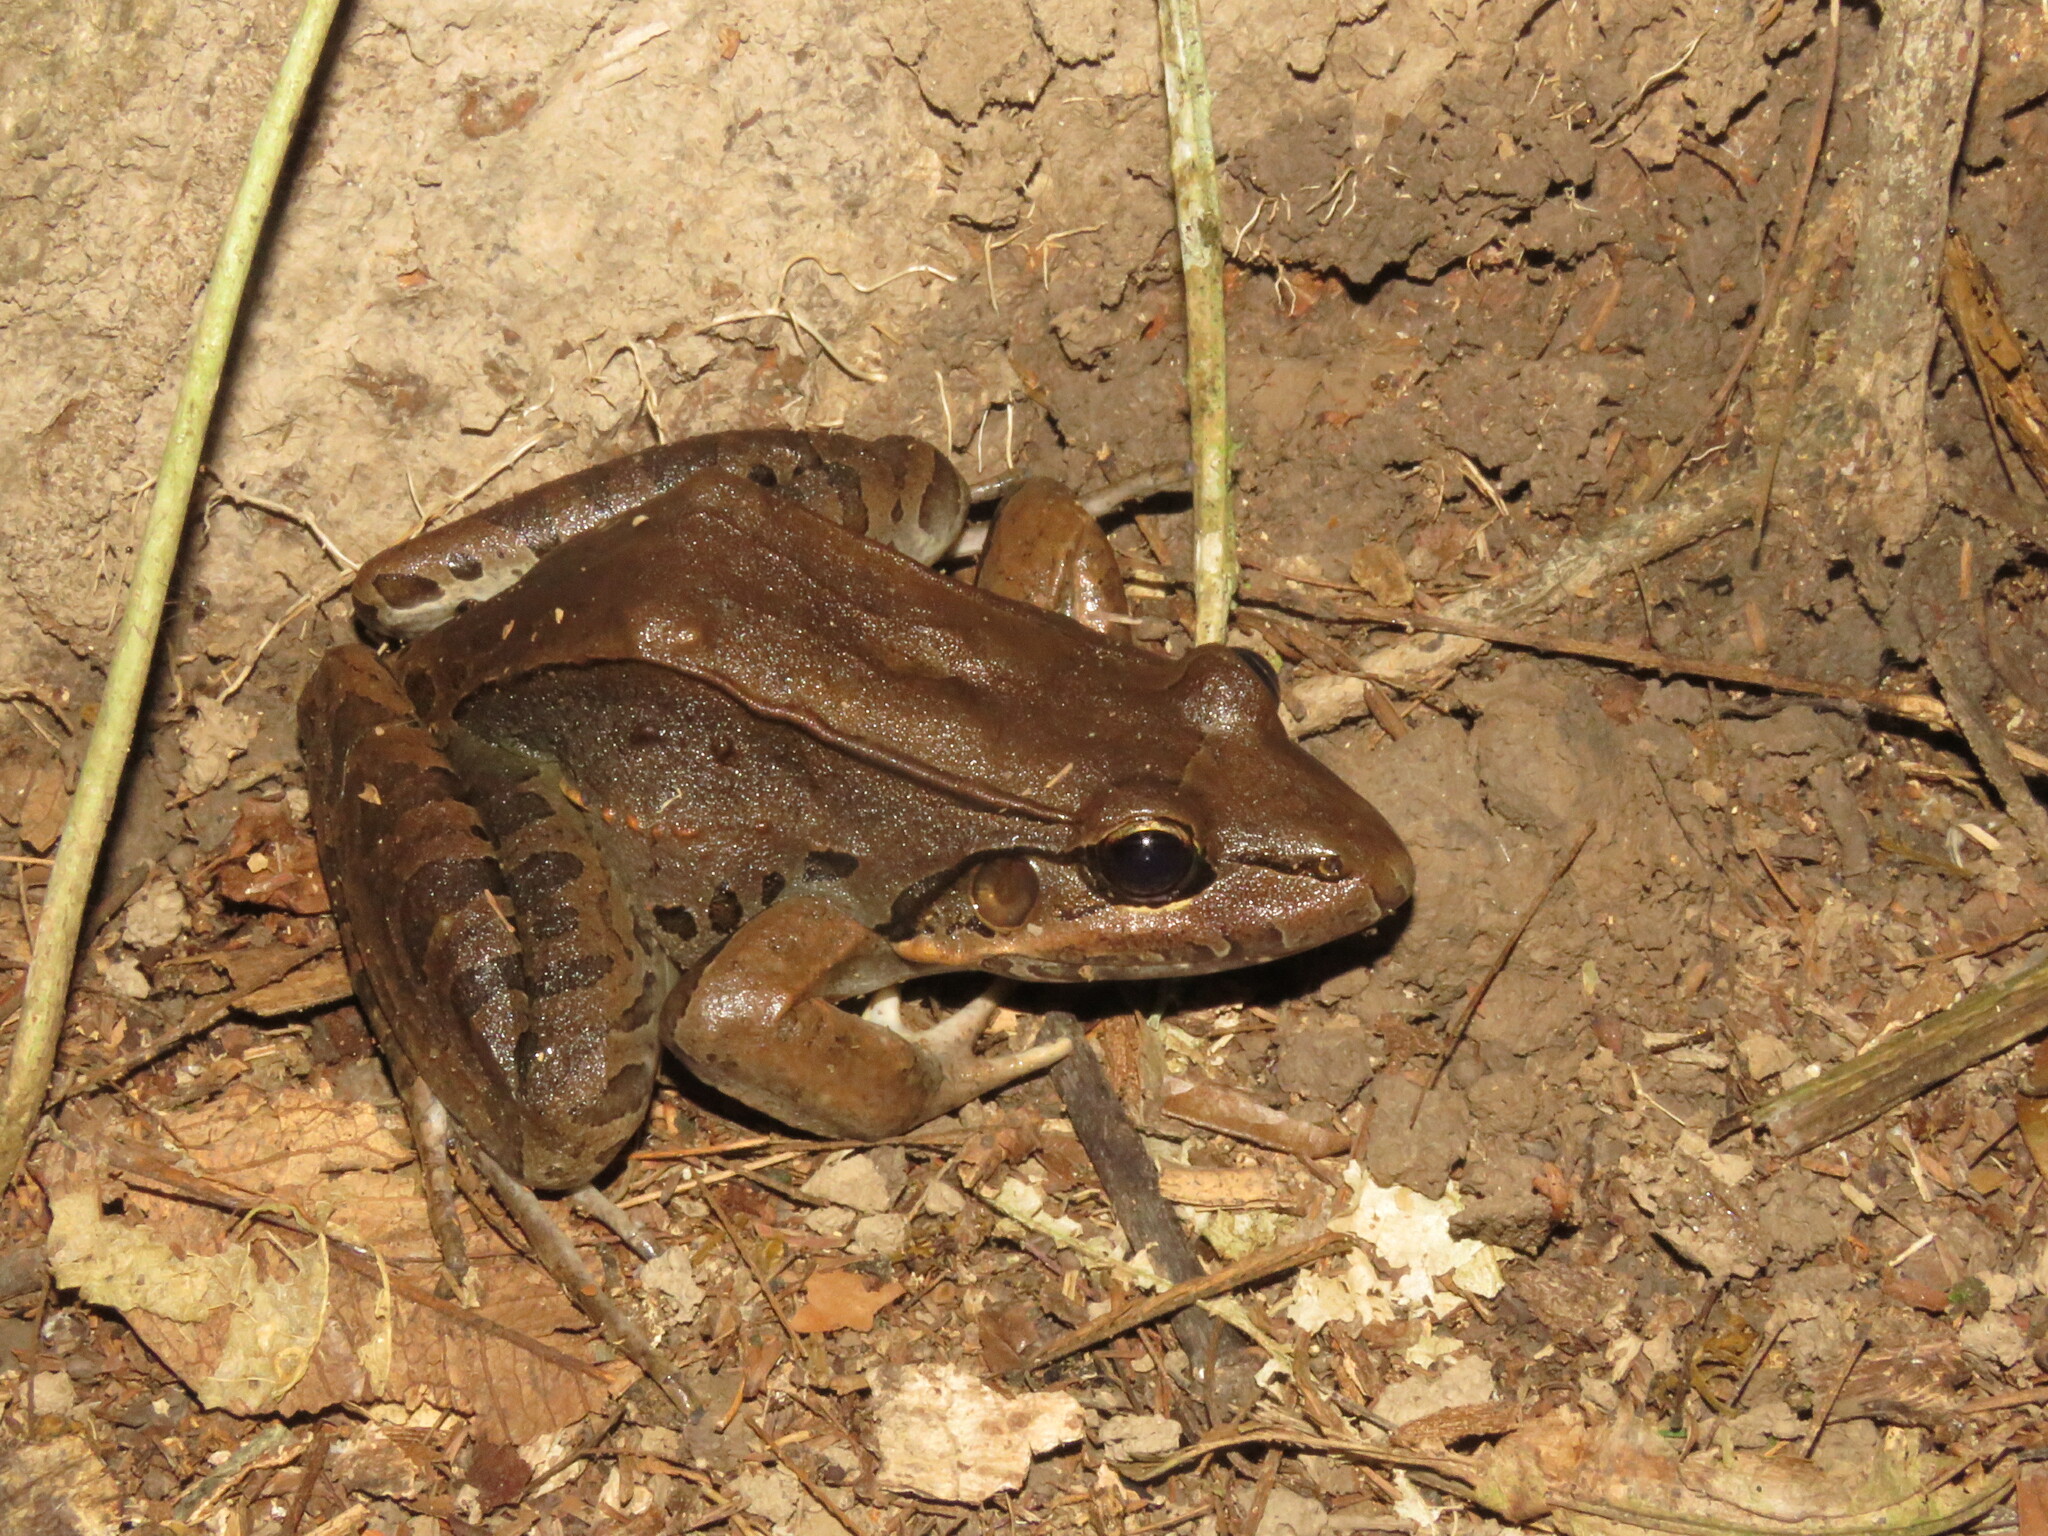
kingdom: Animalia
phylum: Chordata
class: Amphibia
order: Anura
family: Leptodactylidae
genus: Leptodactylus
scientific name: Leptodactylus macrosternum
